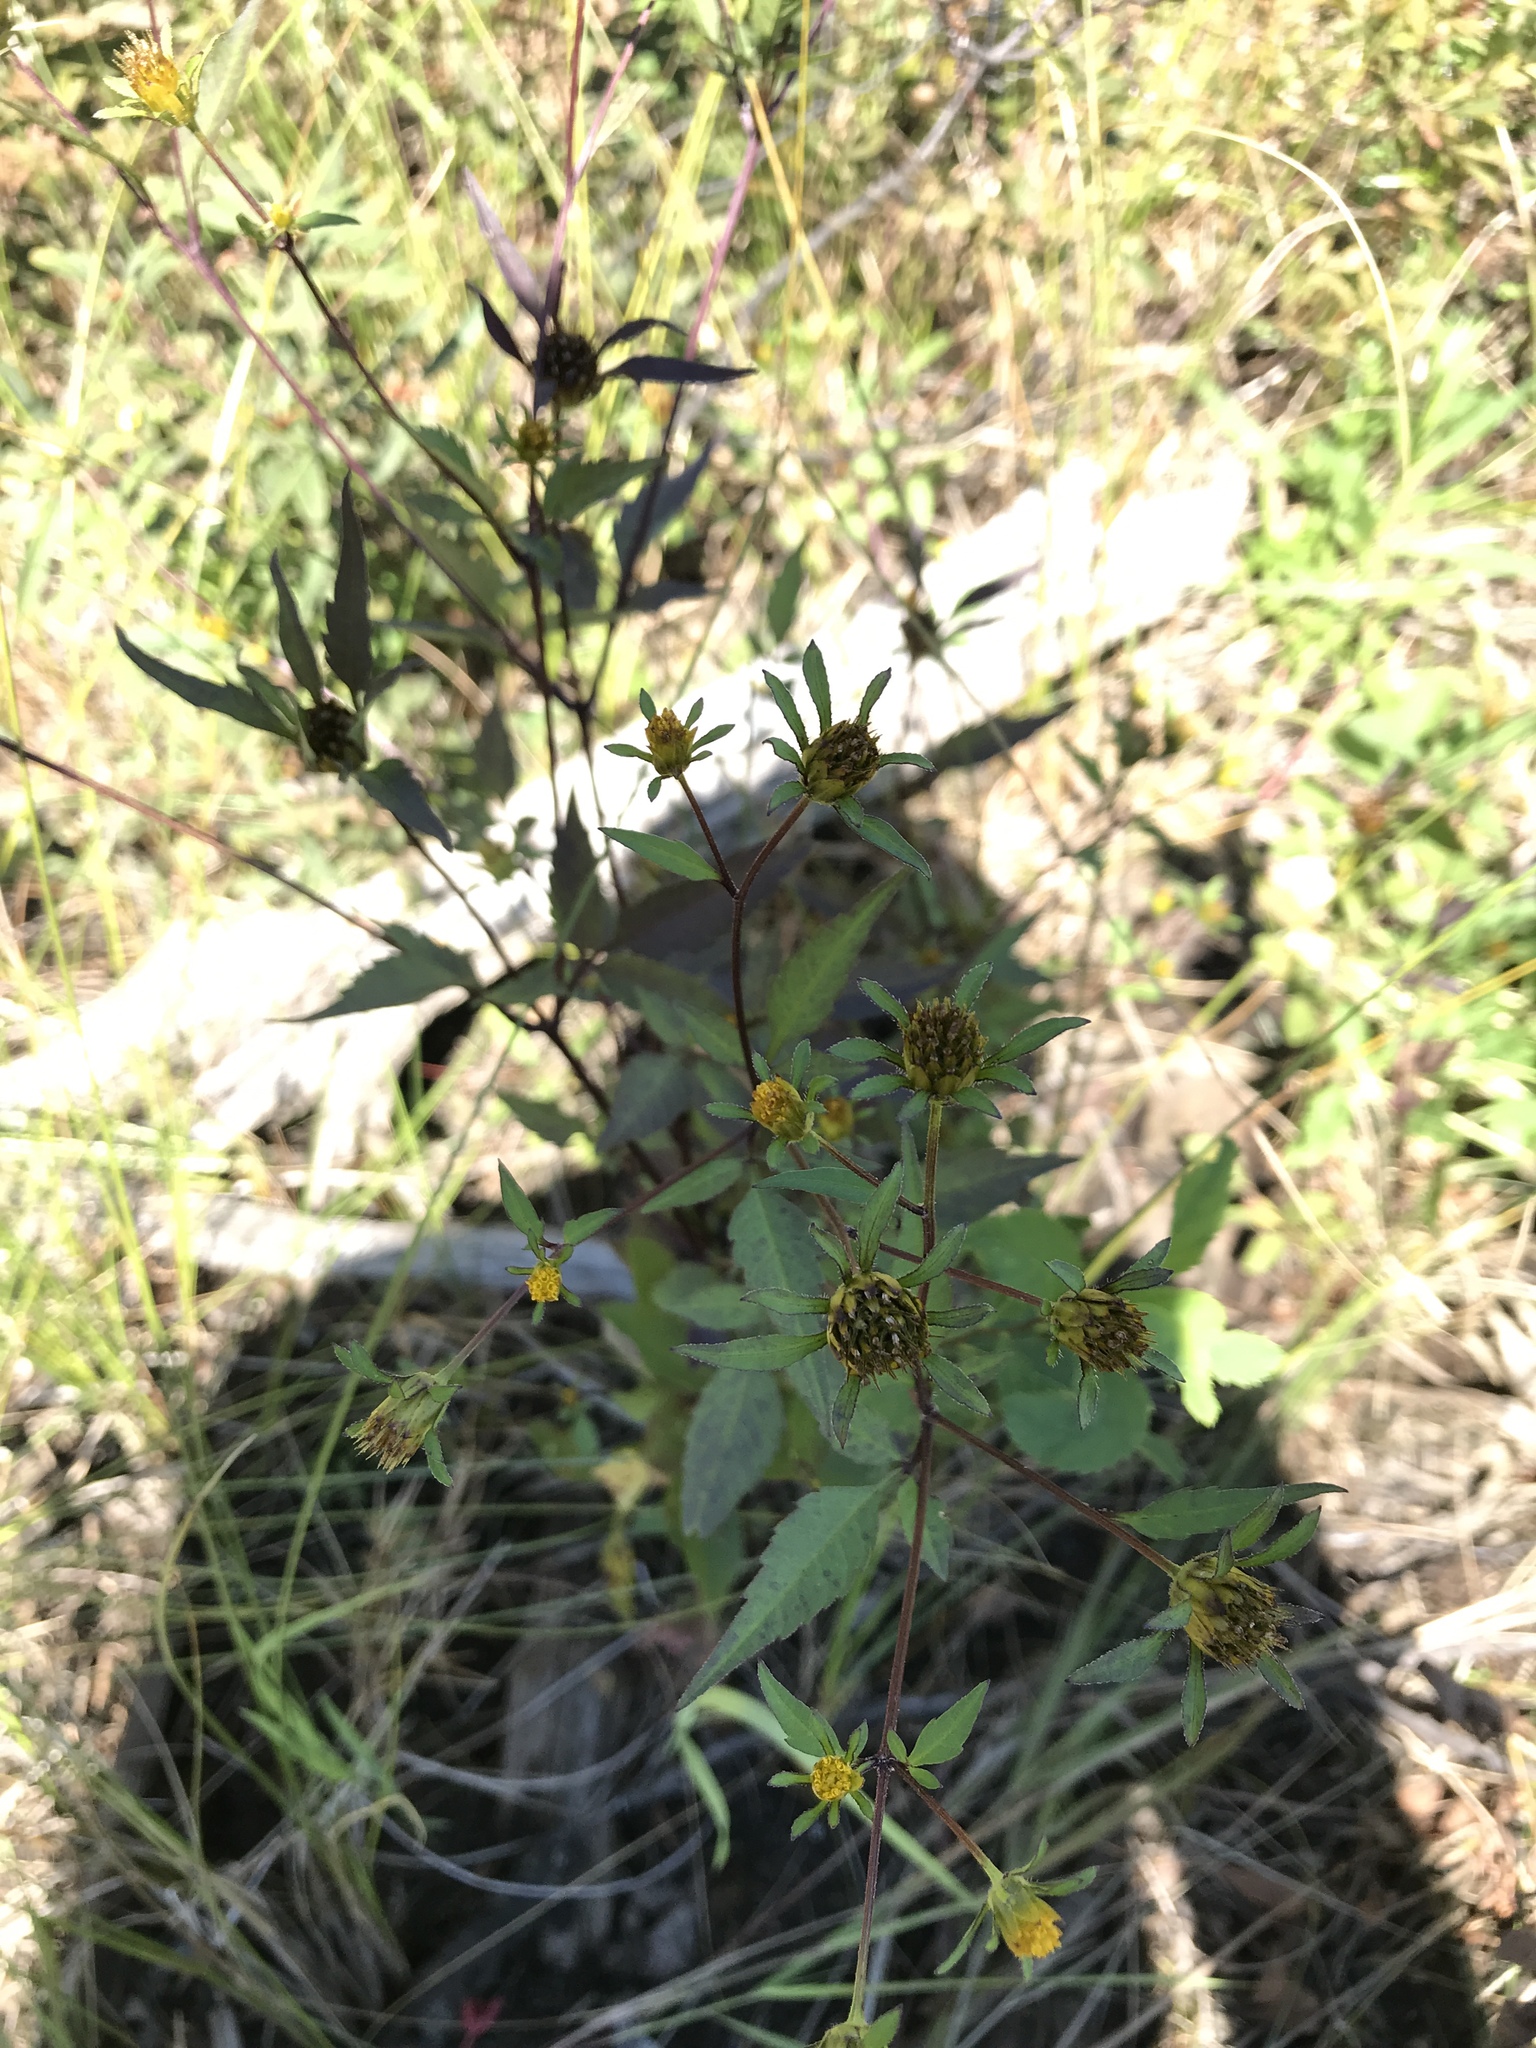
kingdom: Plantae
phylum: Tracheophyta
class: Magnoliopsida
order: Asterales
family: Asteraceae
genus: Bidens
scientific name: Bidens frondosa
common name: Beggarticks
